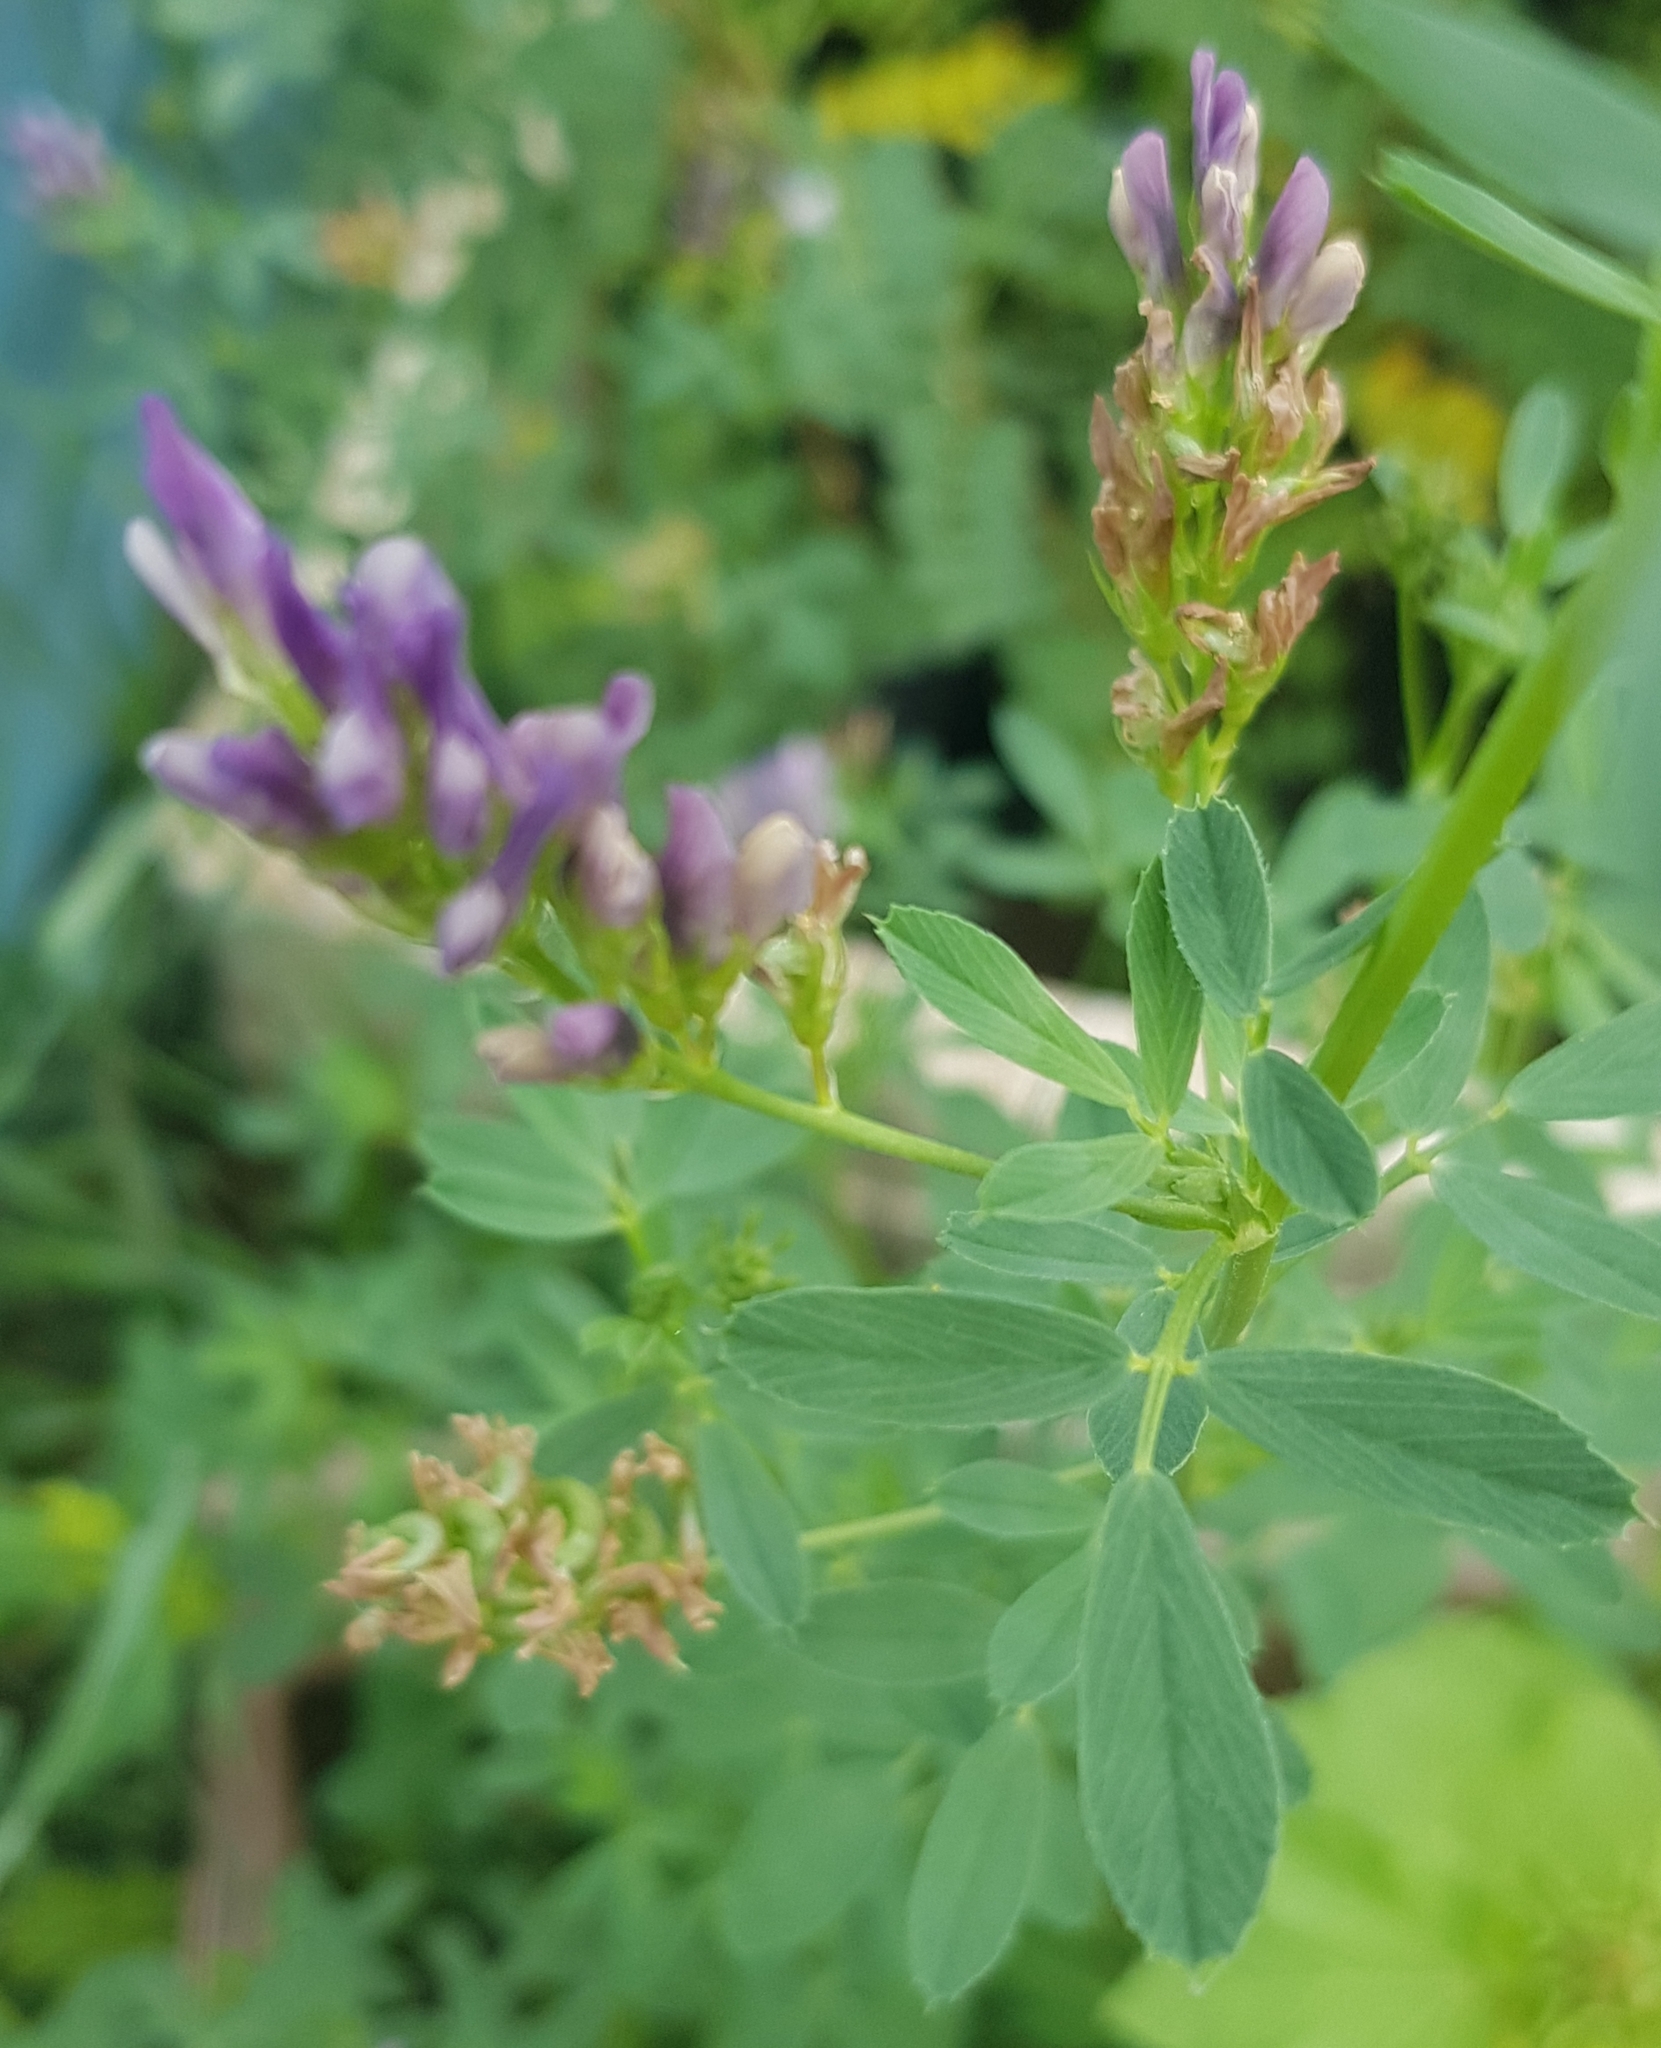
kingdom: Plantae
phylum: Tracheophyta
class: Magnoliopsida
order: Fabales
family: Fabaceae
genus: Medicago
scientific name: Medicago sativa
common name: Alfalfa
